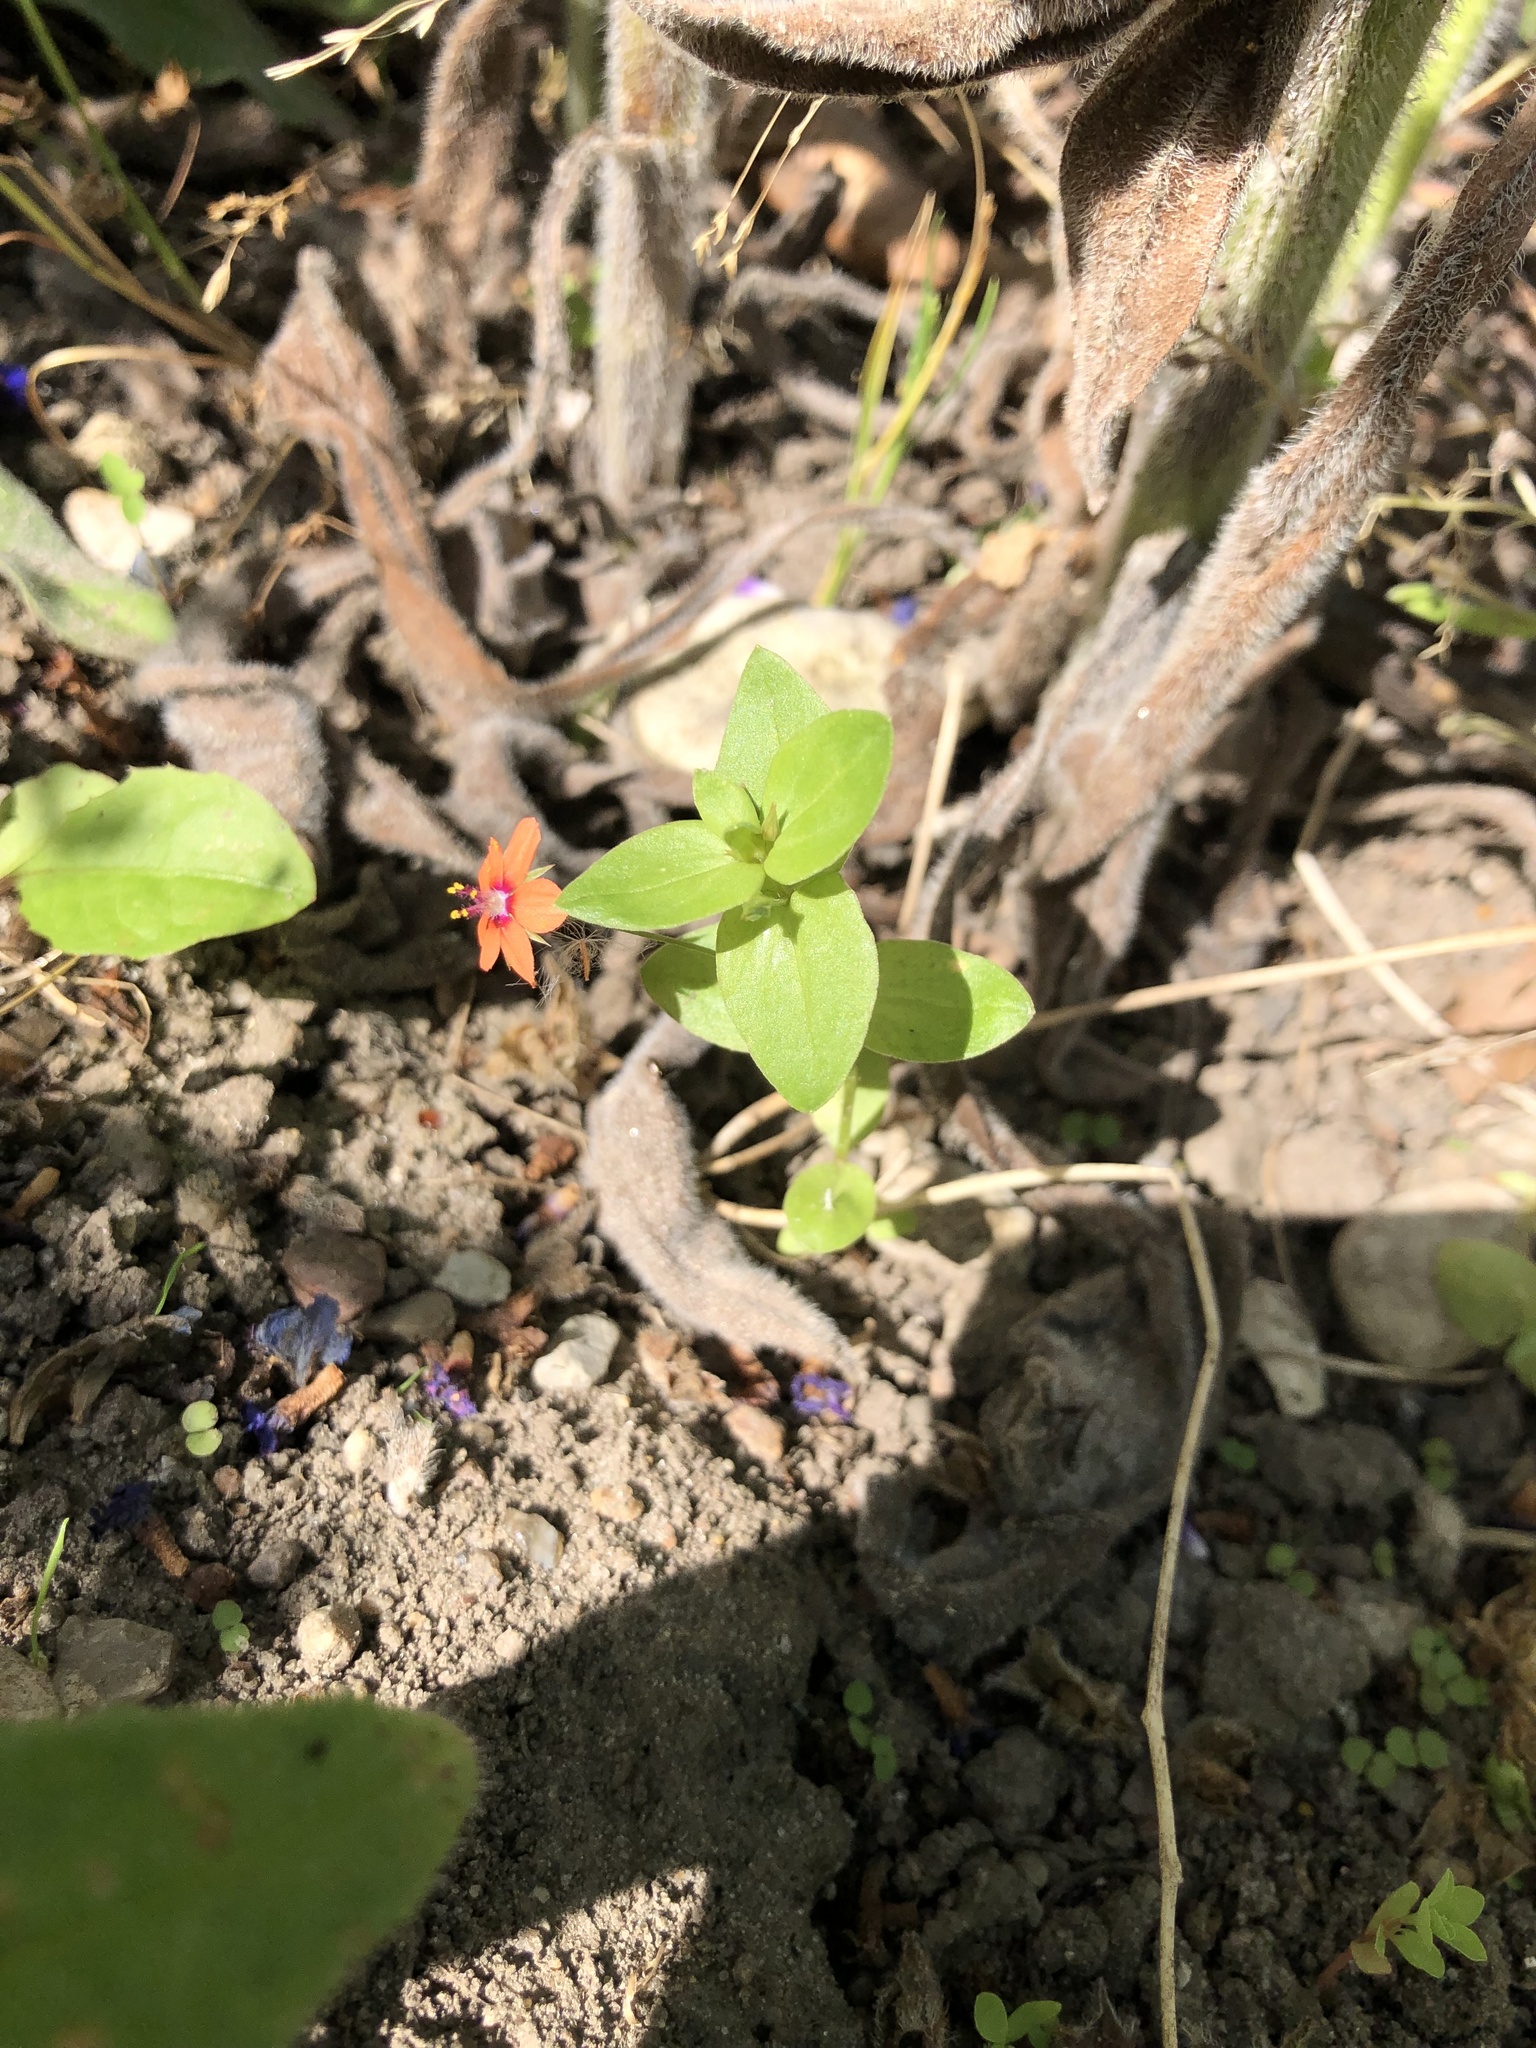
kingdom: Plantae
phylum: Tracheophyta
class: Magnoliopsida
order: Ericales
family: Primulaceae
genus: Lysimachia
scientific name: Lysimachia arvensis
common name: Scarlet pimpernel
